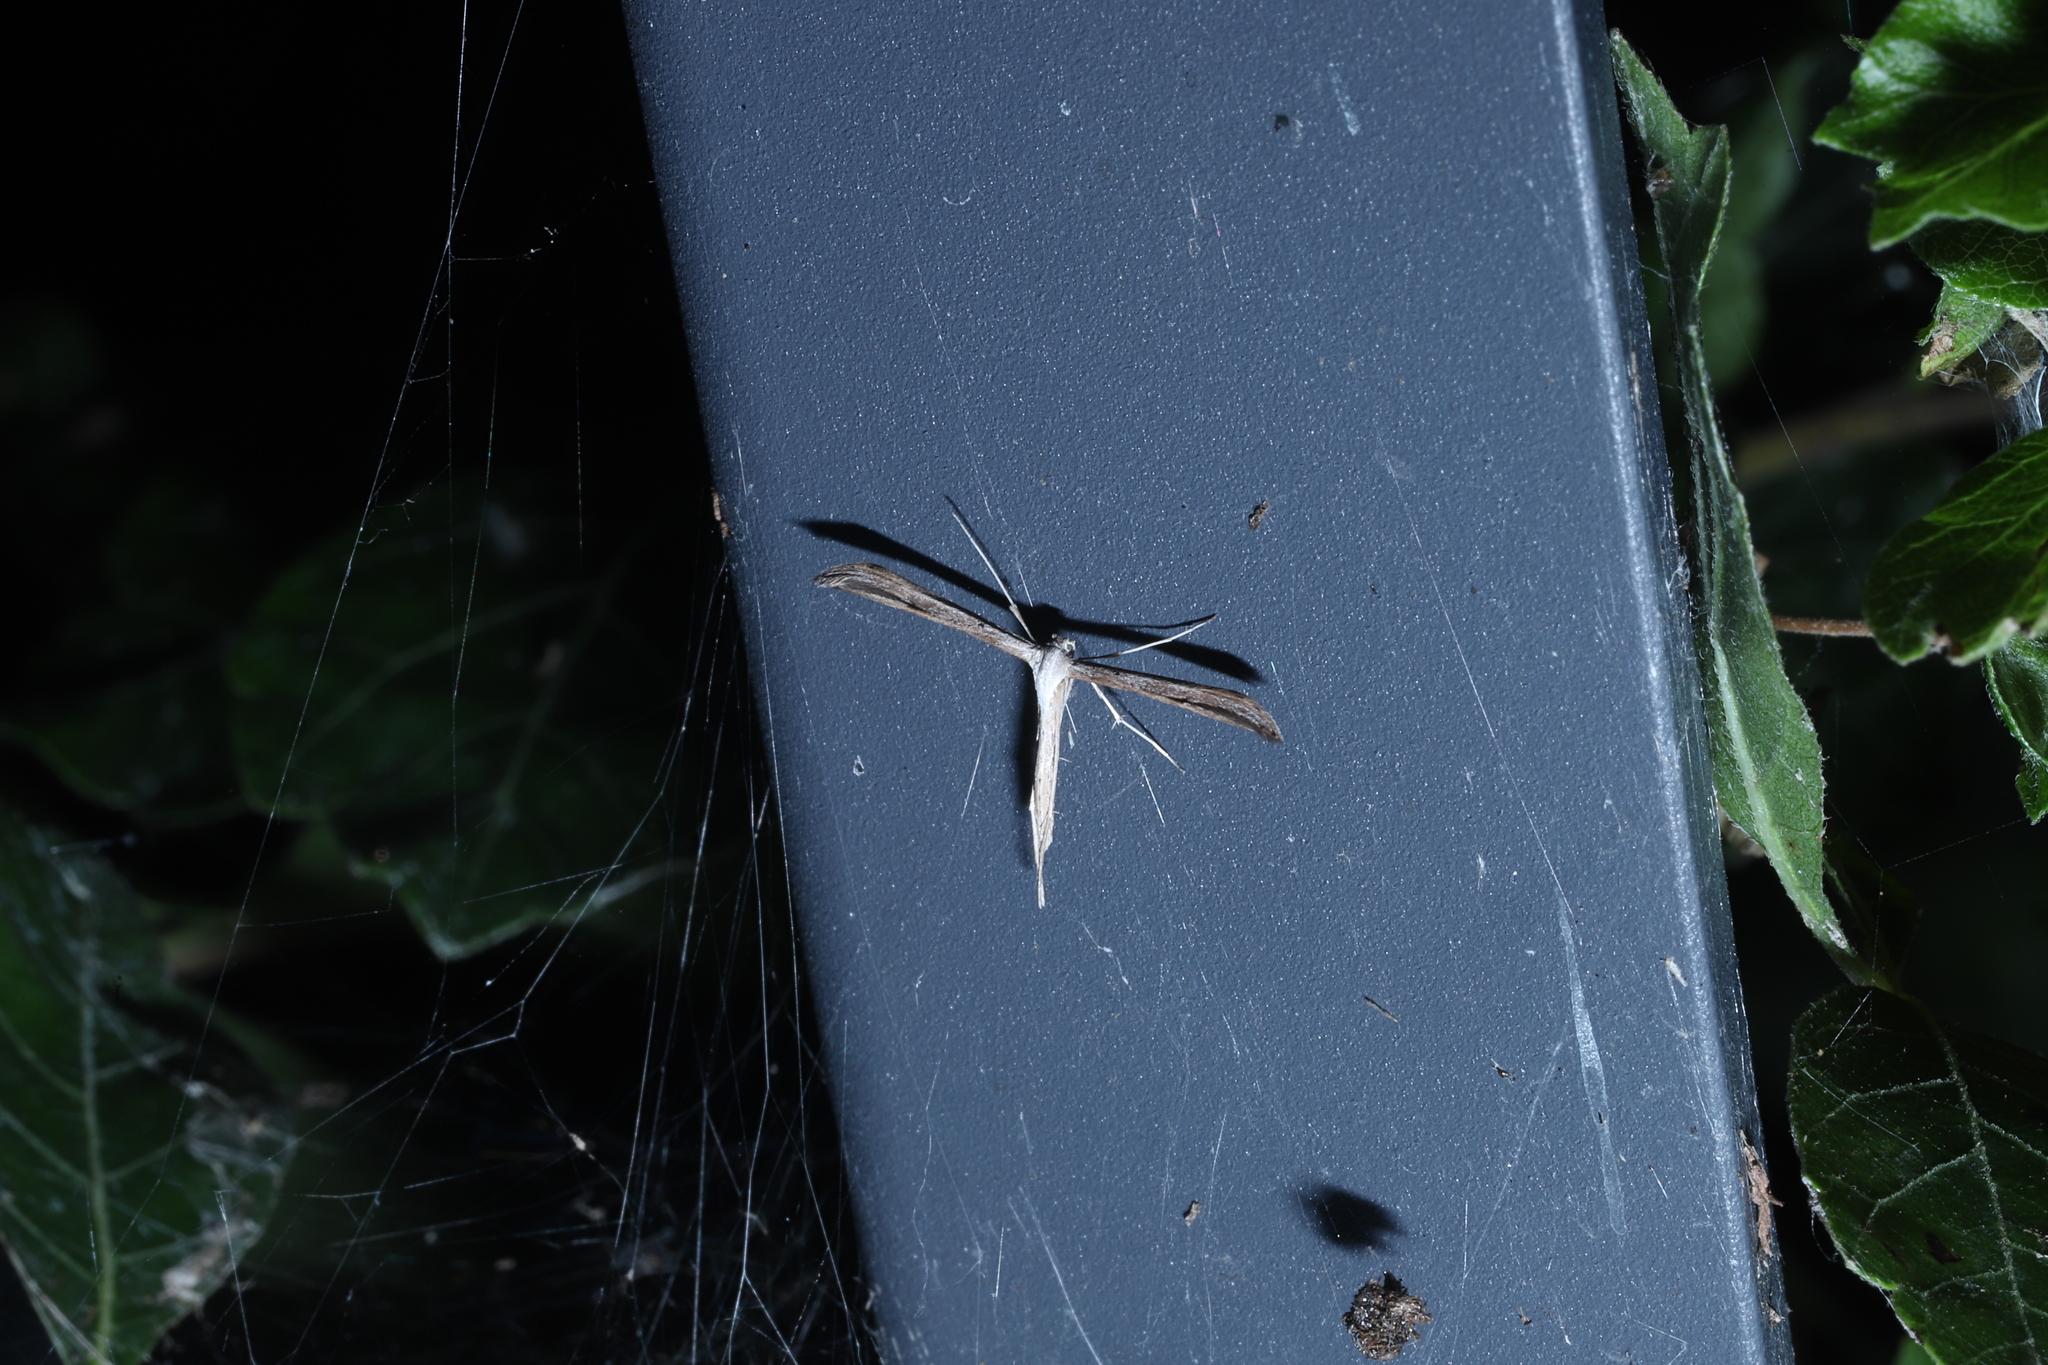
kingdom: Animalia
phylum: Arthropoda
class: Insecta
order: Lepidoptera
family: Pterophoridae
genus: Emmelina
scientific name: Emmelina monodactyla
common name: Common plume
